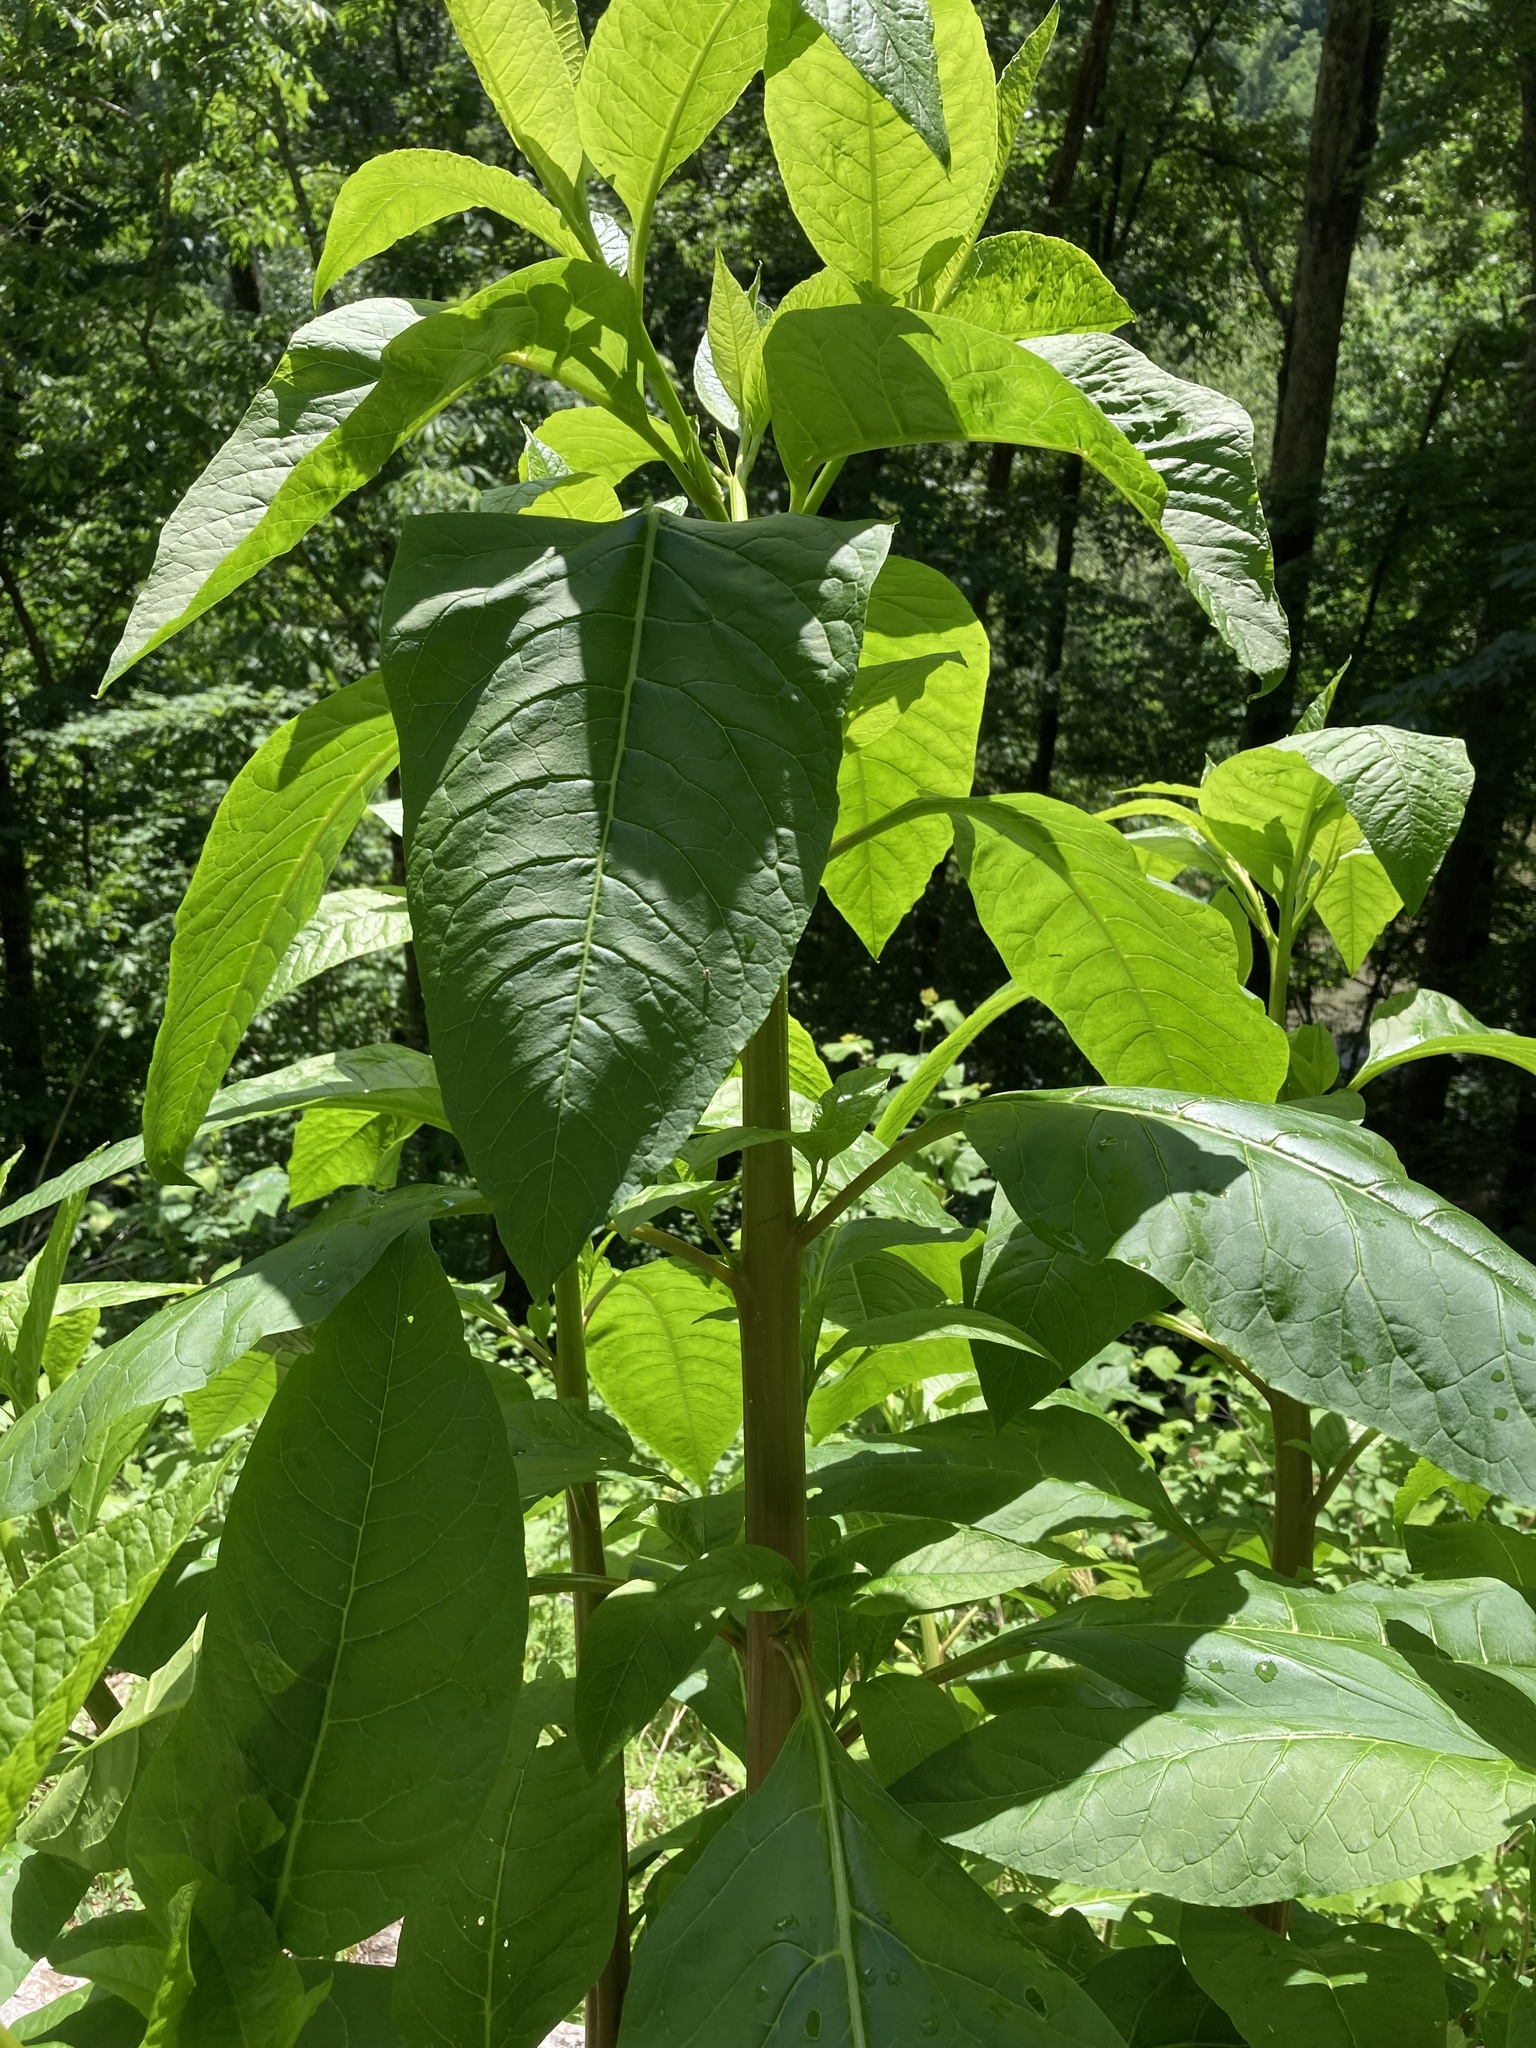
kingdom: Plantae
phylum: Tracheophyta
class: Magnoliopsida
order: Caryophyllales
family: Phytolaccaceae
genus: Phytolacca
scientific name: Phytolacca americana
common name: American pokeweed
